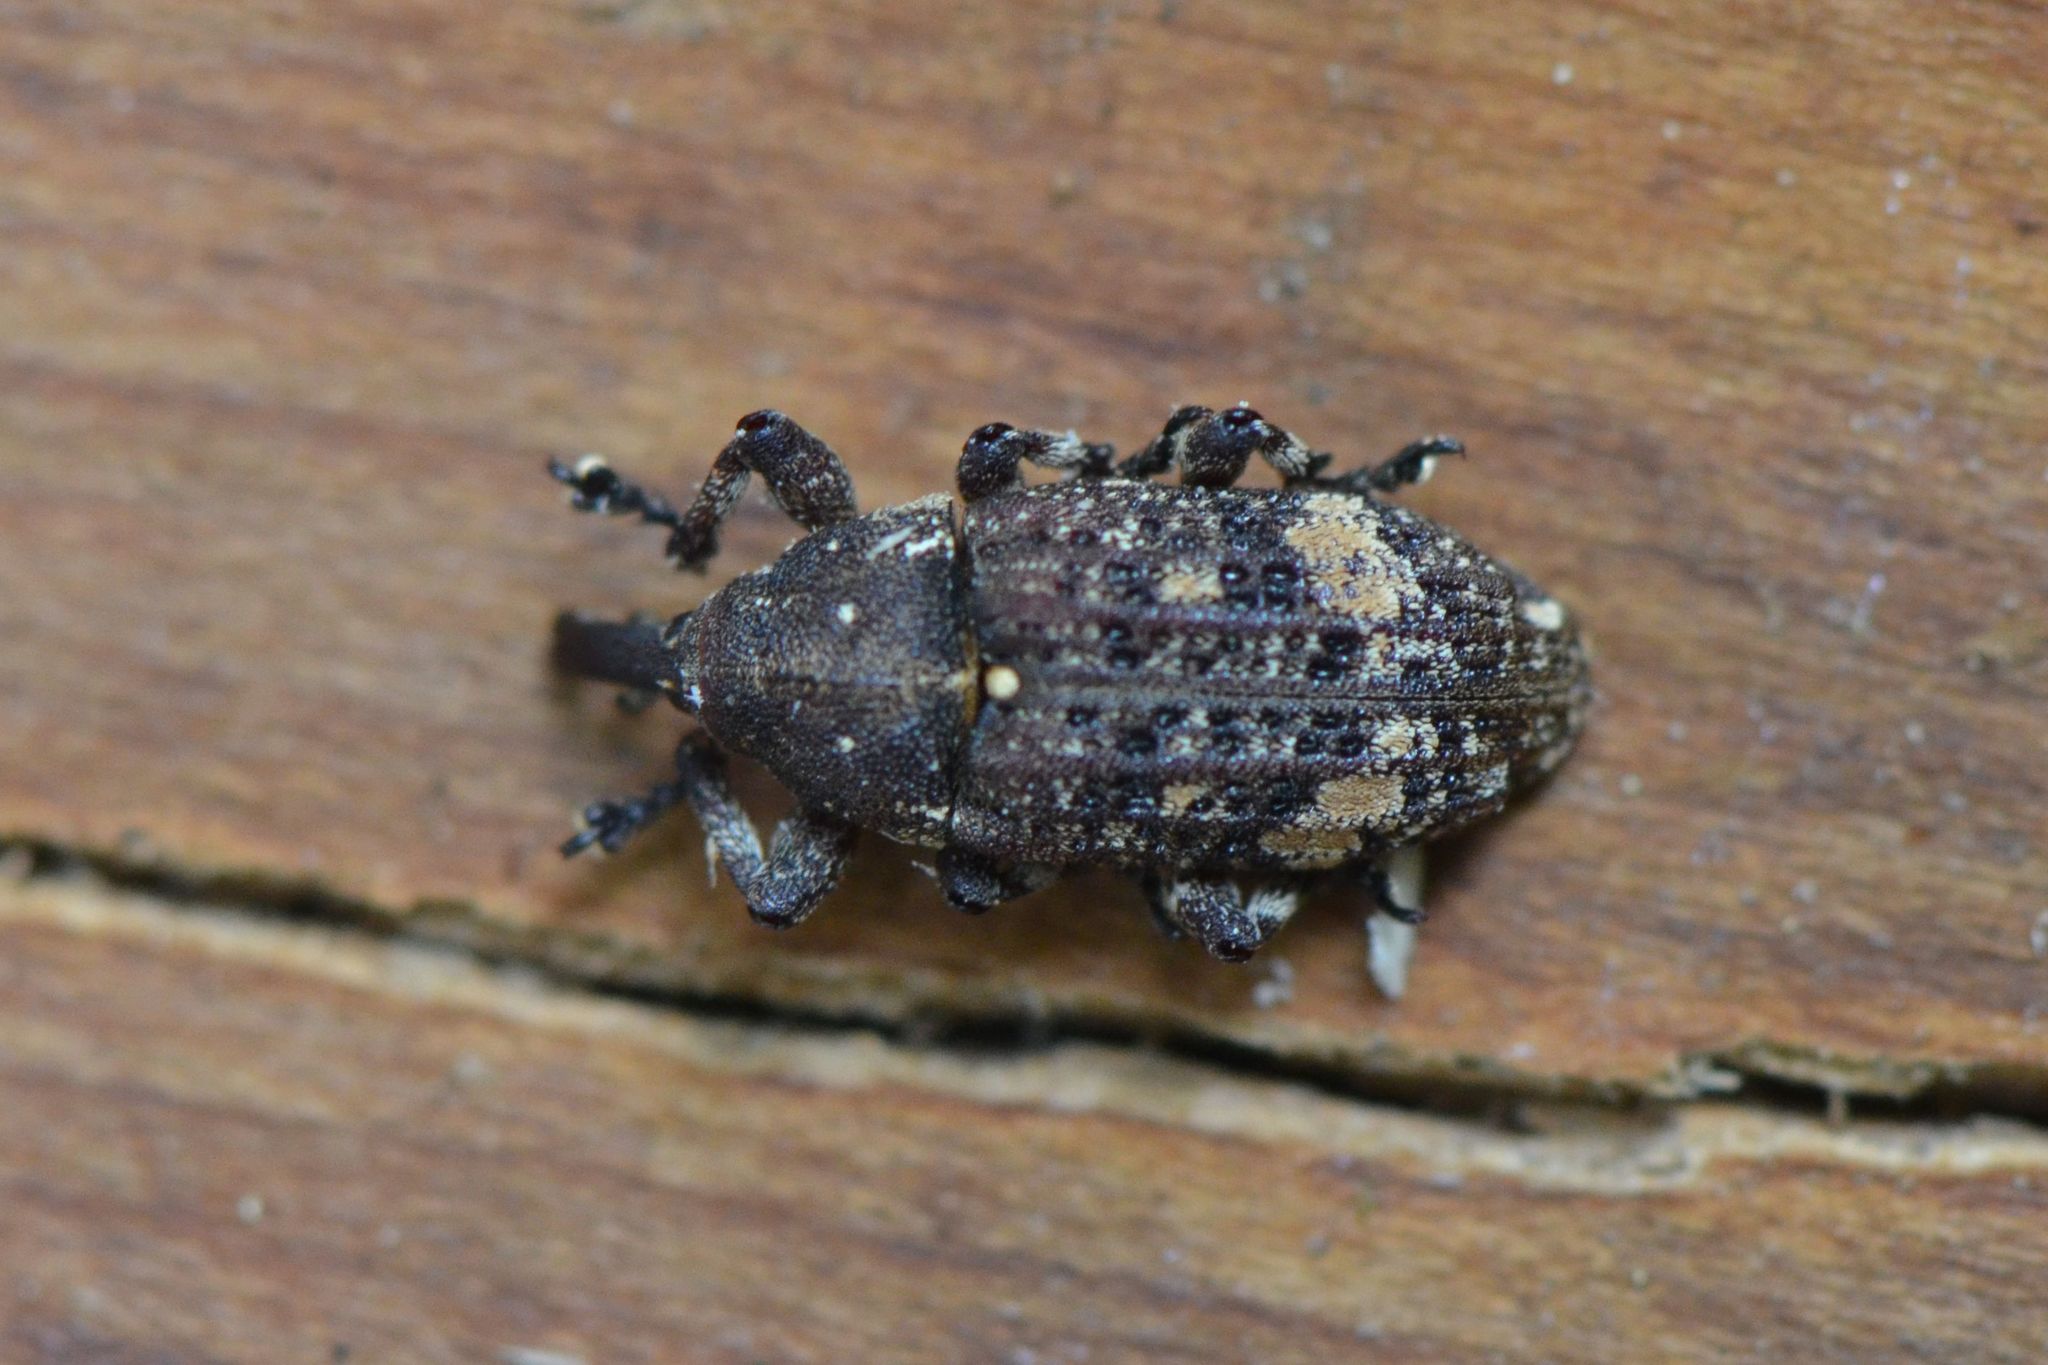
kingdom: Animalia
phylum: Arthropoda
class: Insecta
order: Coleoptera
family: Curculionidae
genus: Pissodes
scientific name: Pissodes piceae
